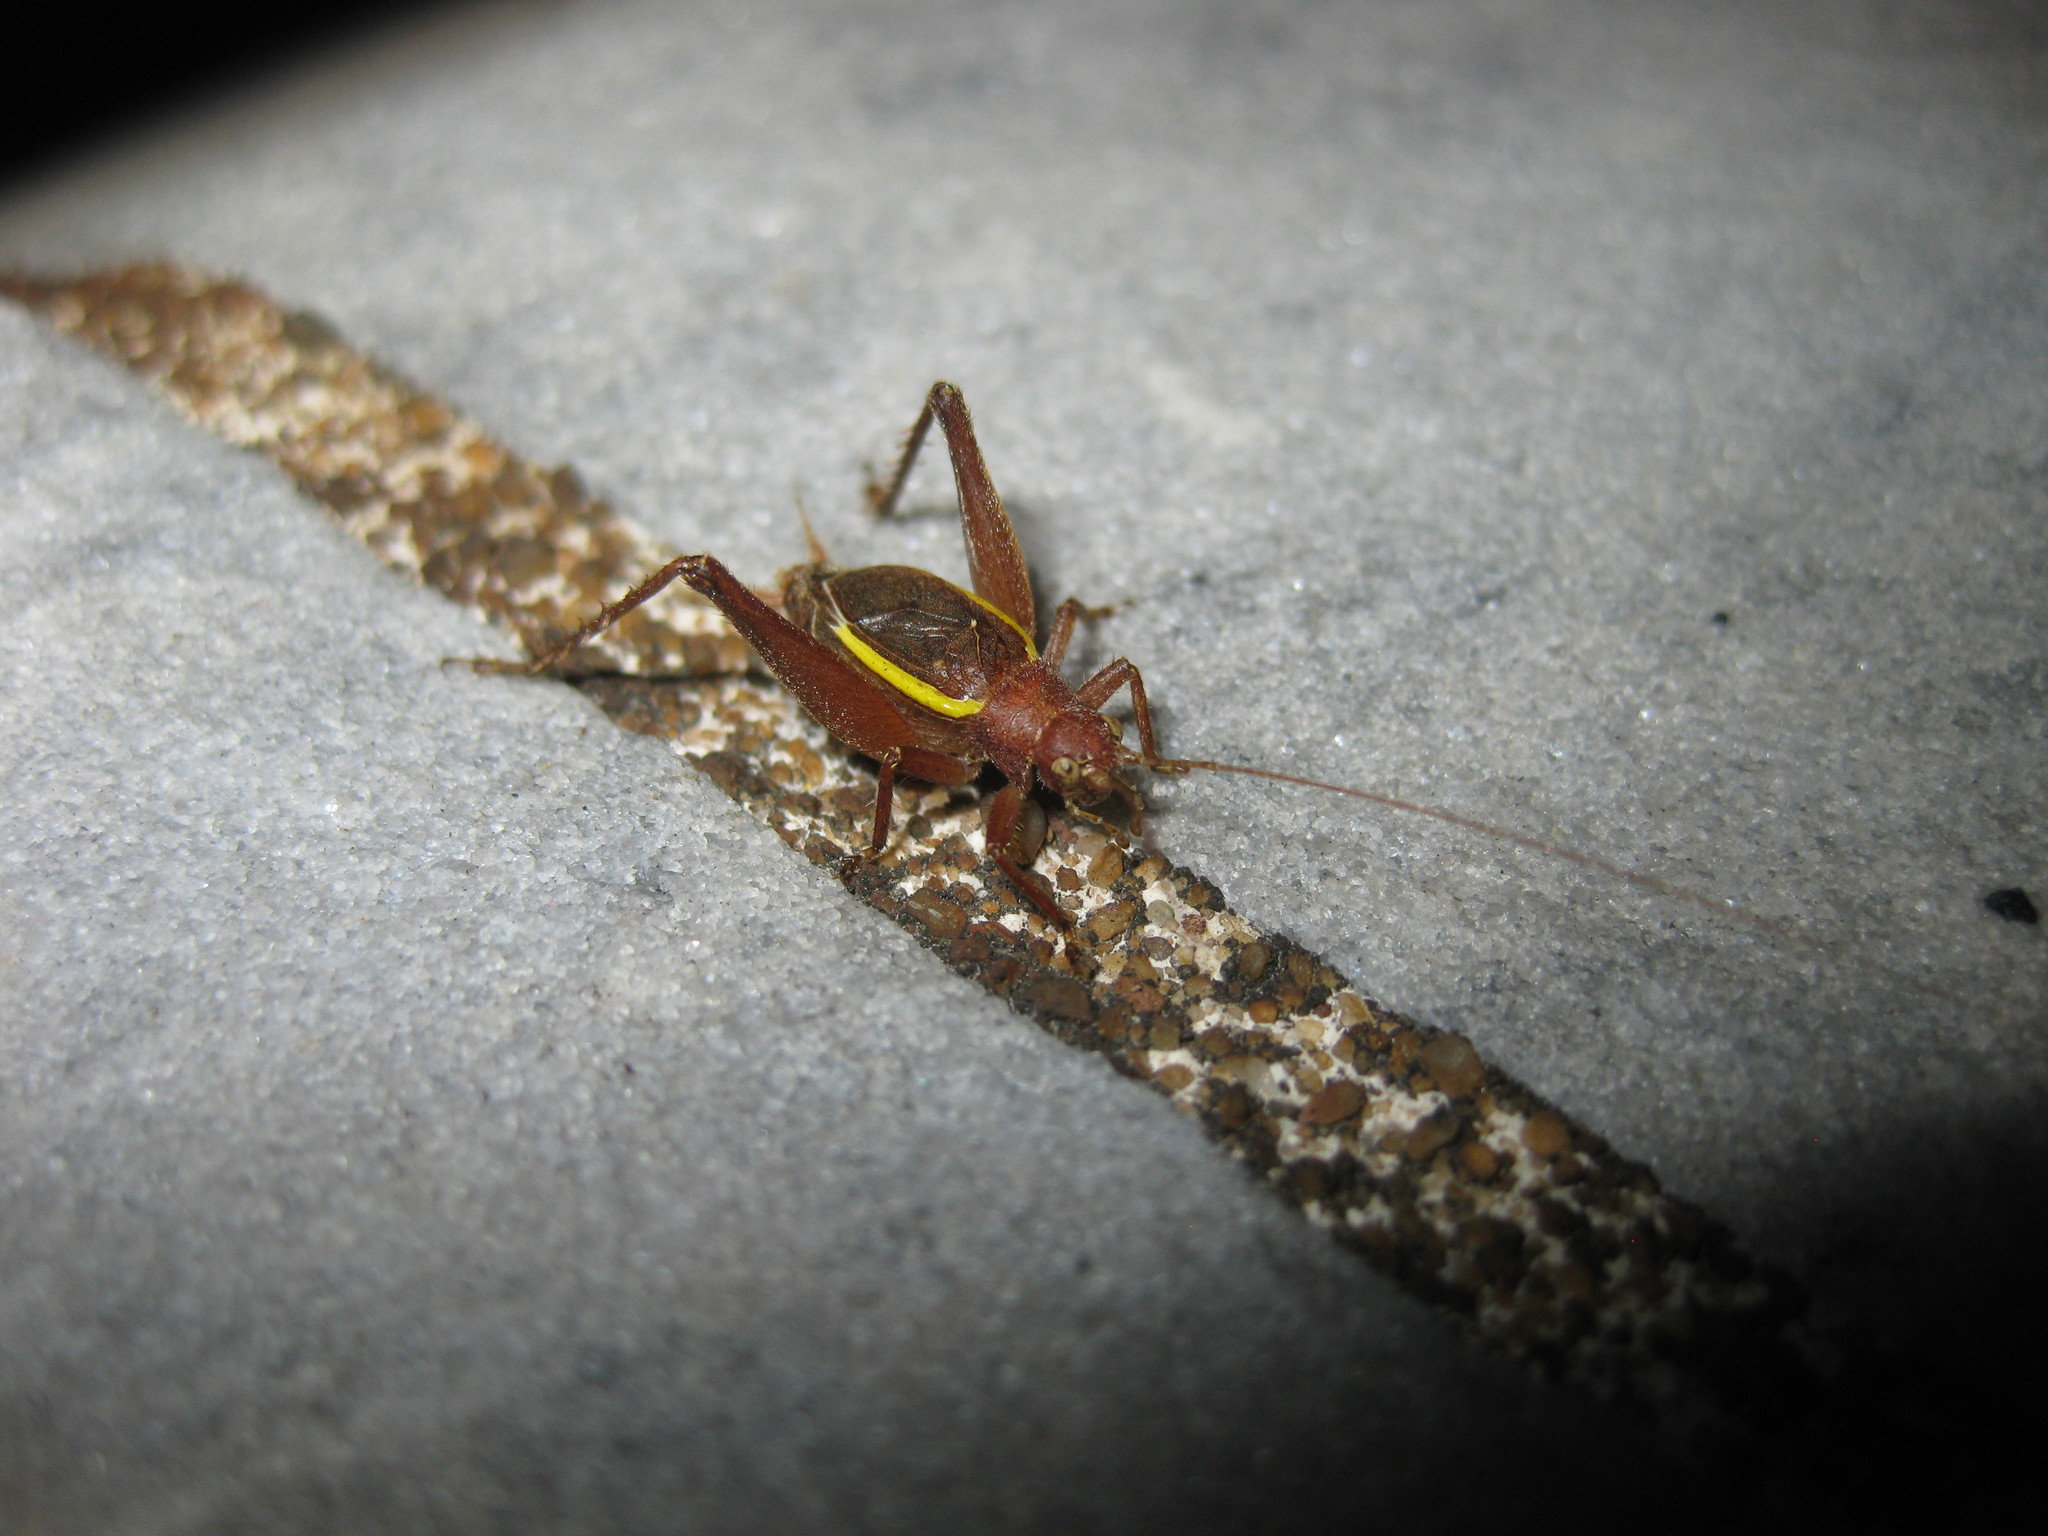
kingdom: Animalia
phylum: Arthropoda
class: Insecta
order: Orthoptera
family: Gryllidae
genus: Hapithus
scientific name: Hapithus agitator
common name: Restless bush cricket
